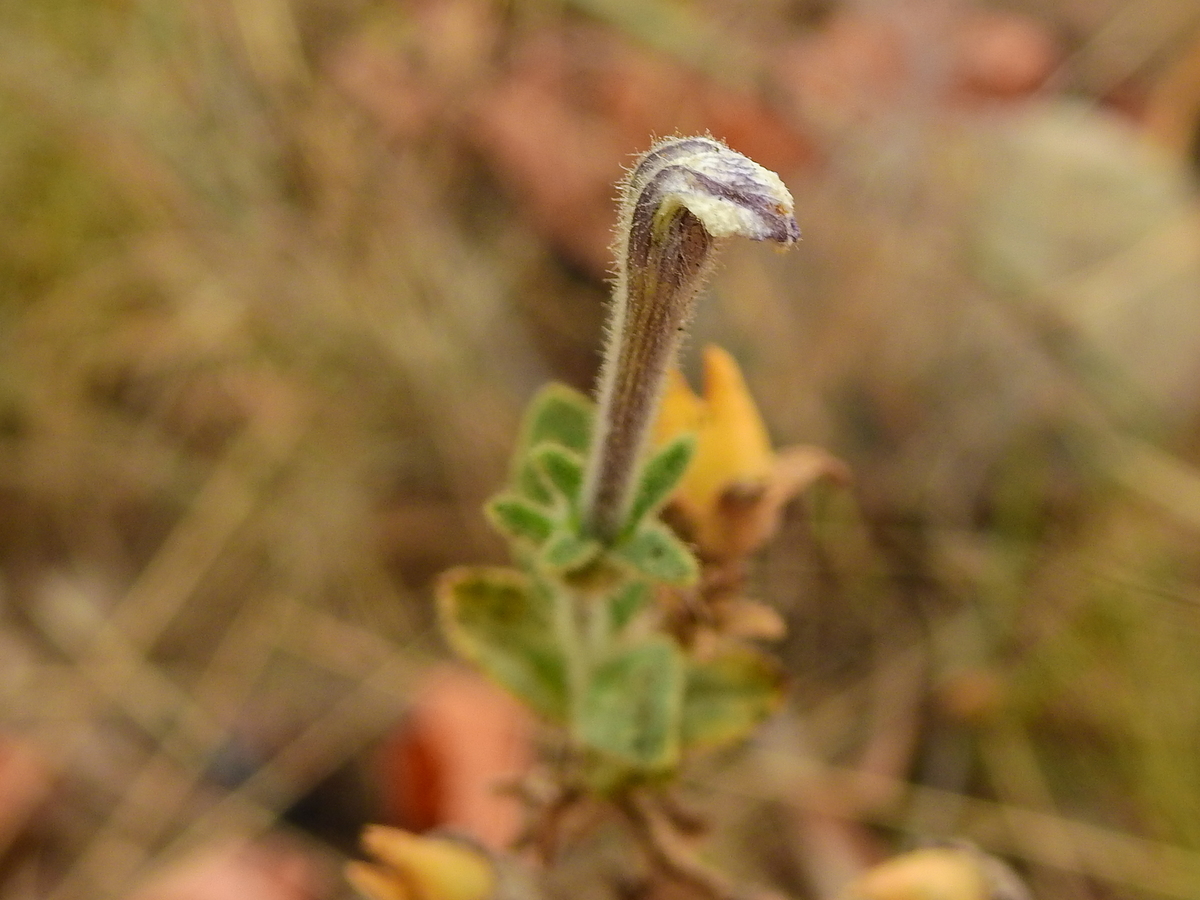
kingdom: Plantae
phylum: Tracheophyta
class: Magnoliopsida
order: Solanales
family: Solanaceae
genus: Petunia
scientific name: Petunia axillaris
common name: Large white petunia
